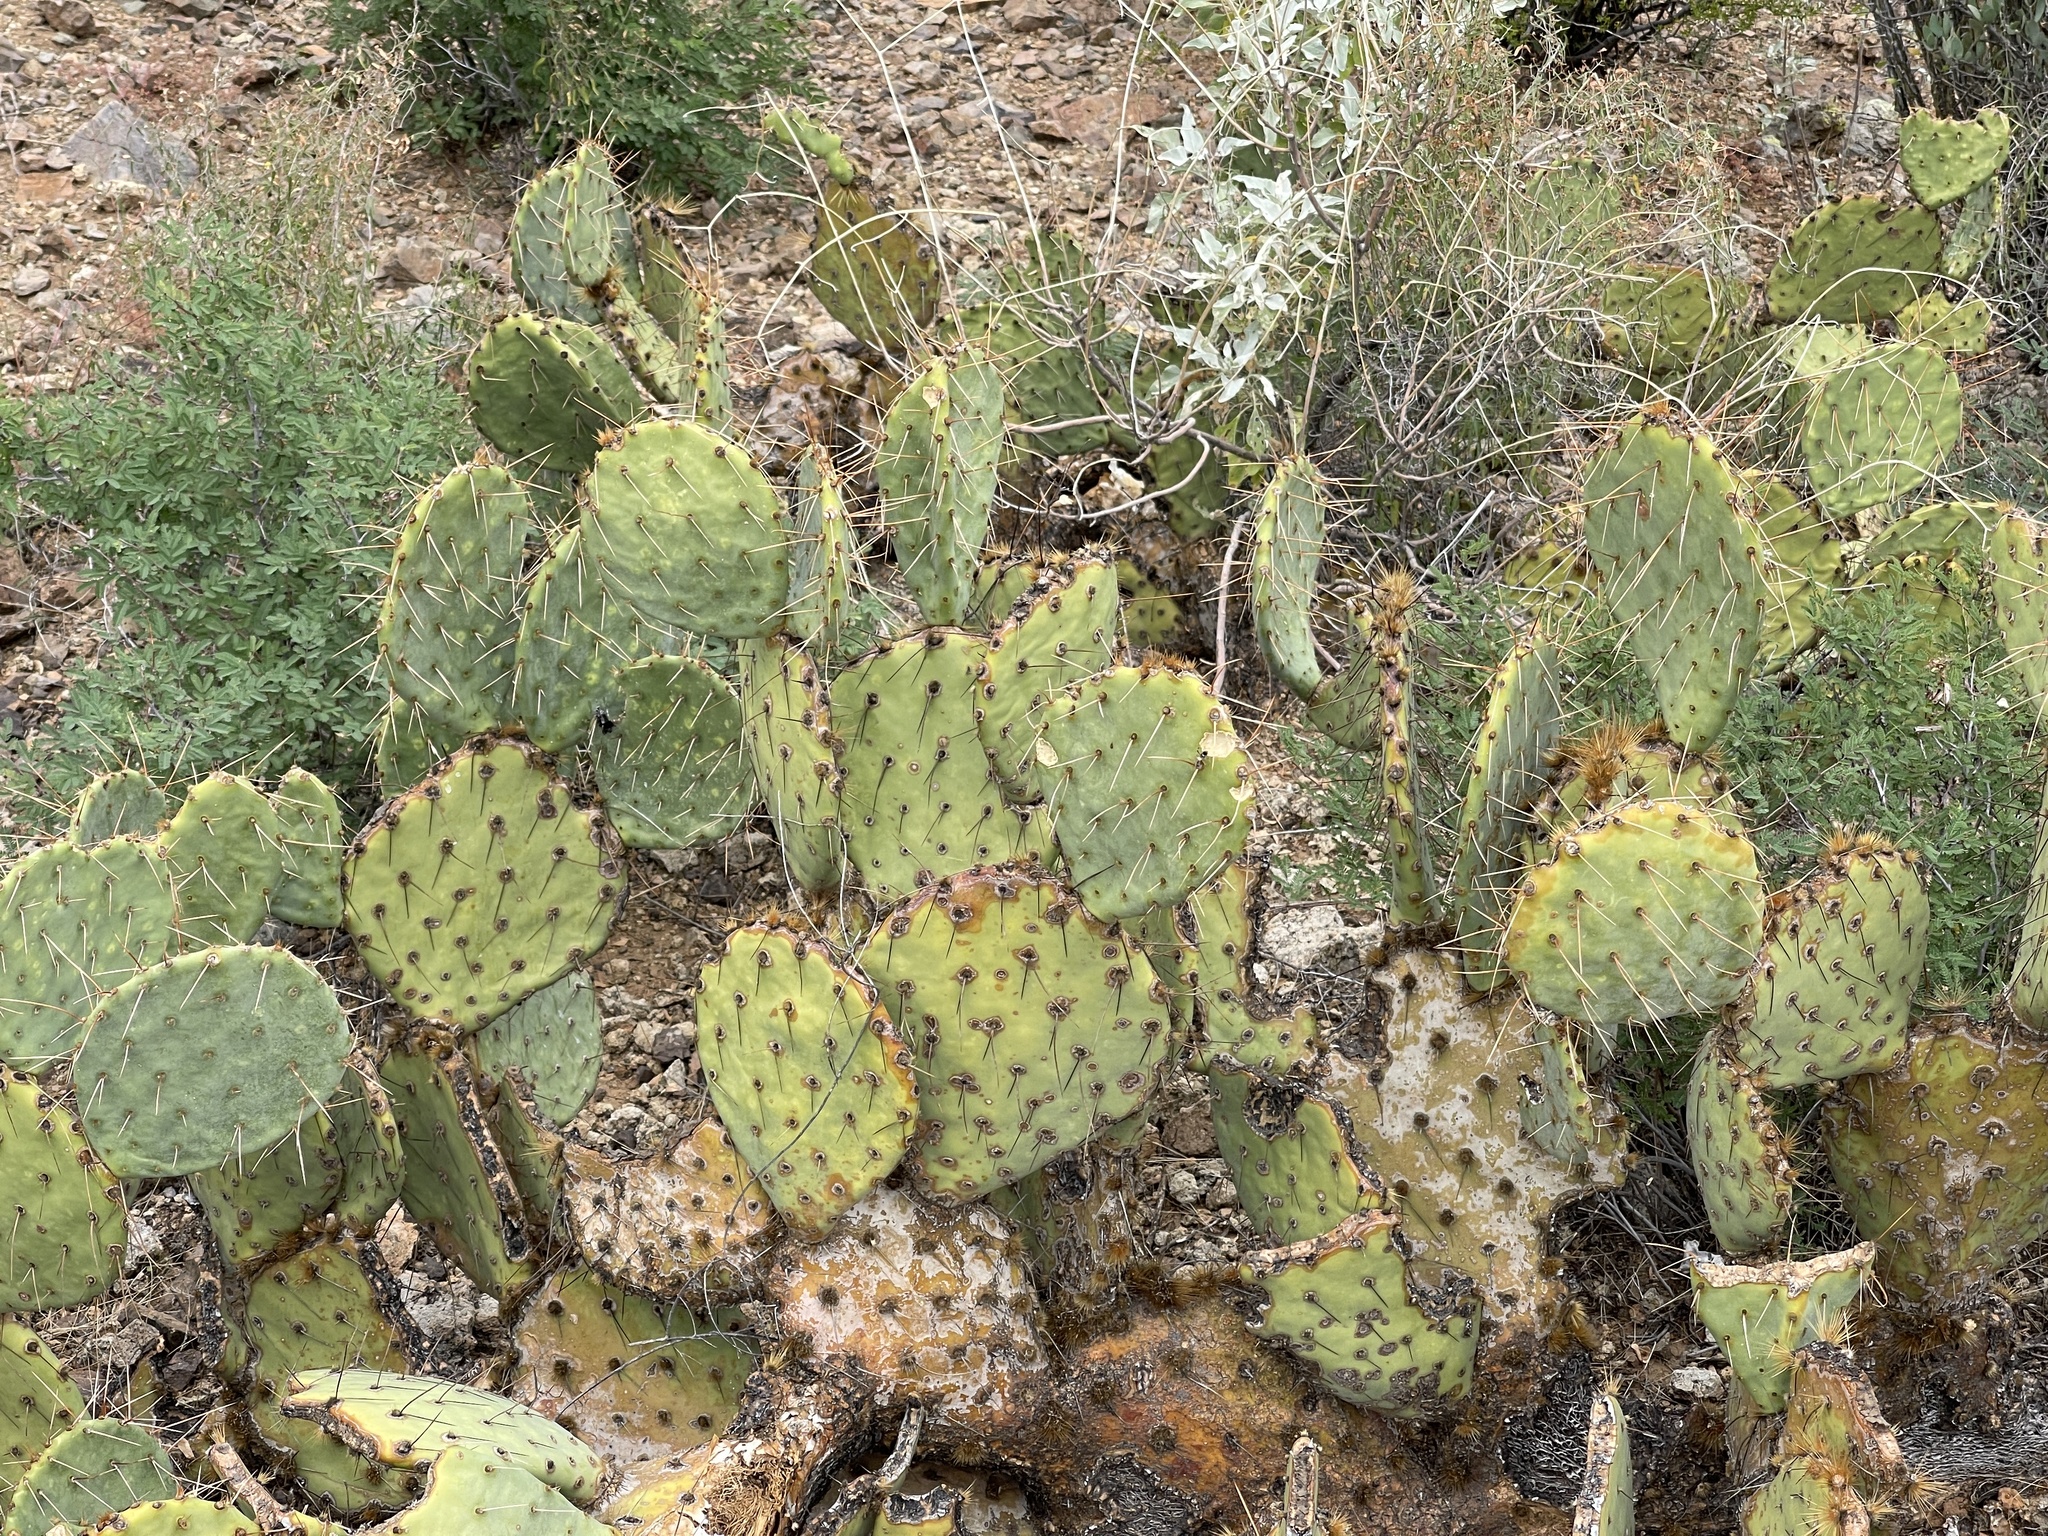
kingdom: Plantae
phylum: Tracheophyta
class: Magnoliopsida
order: Caryophyllales
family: Cactaceae
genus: Opuntia
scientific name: Opuntia engelmannii
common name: Cactus-apple
